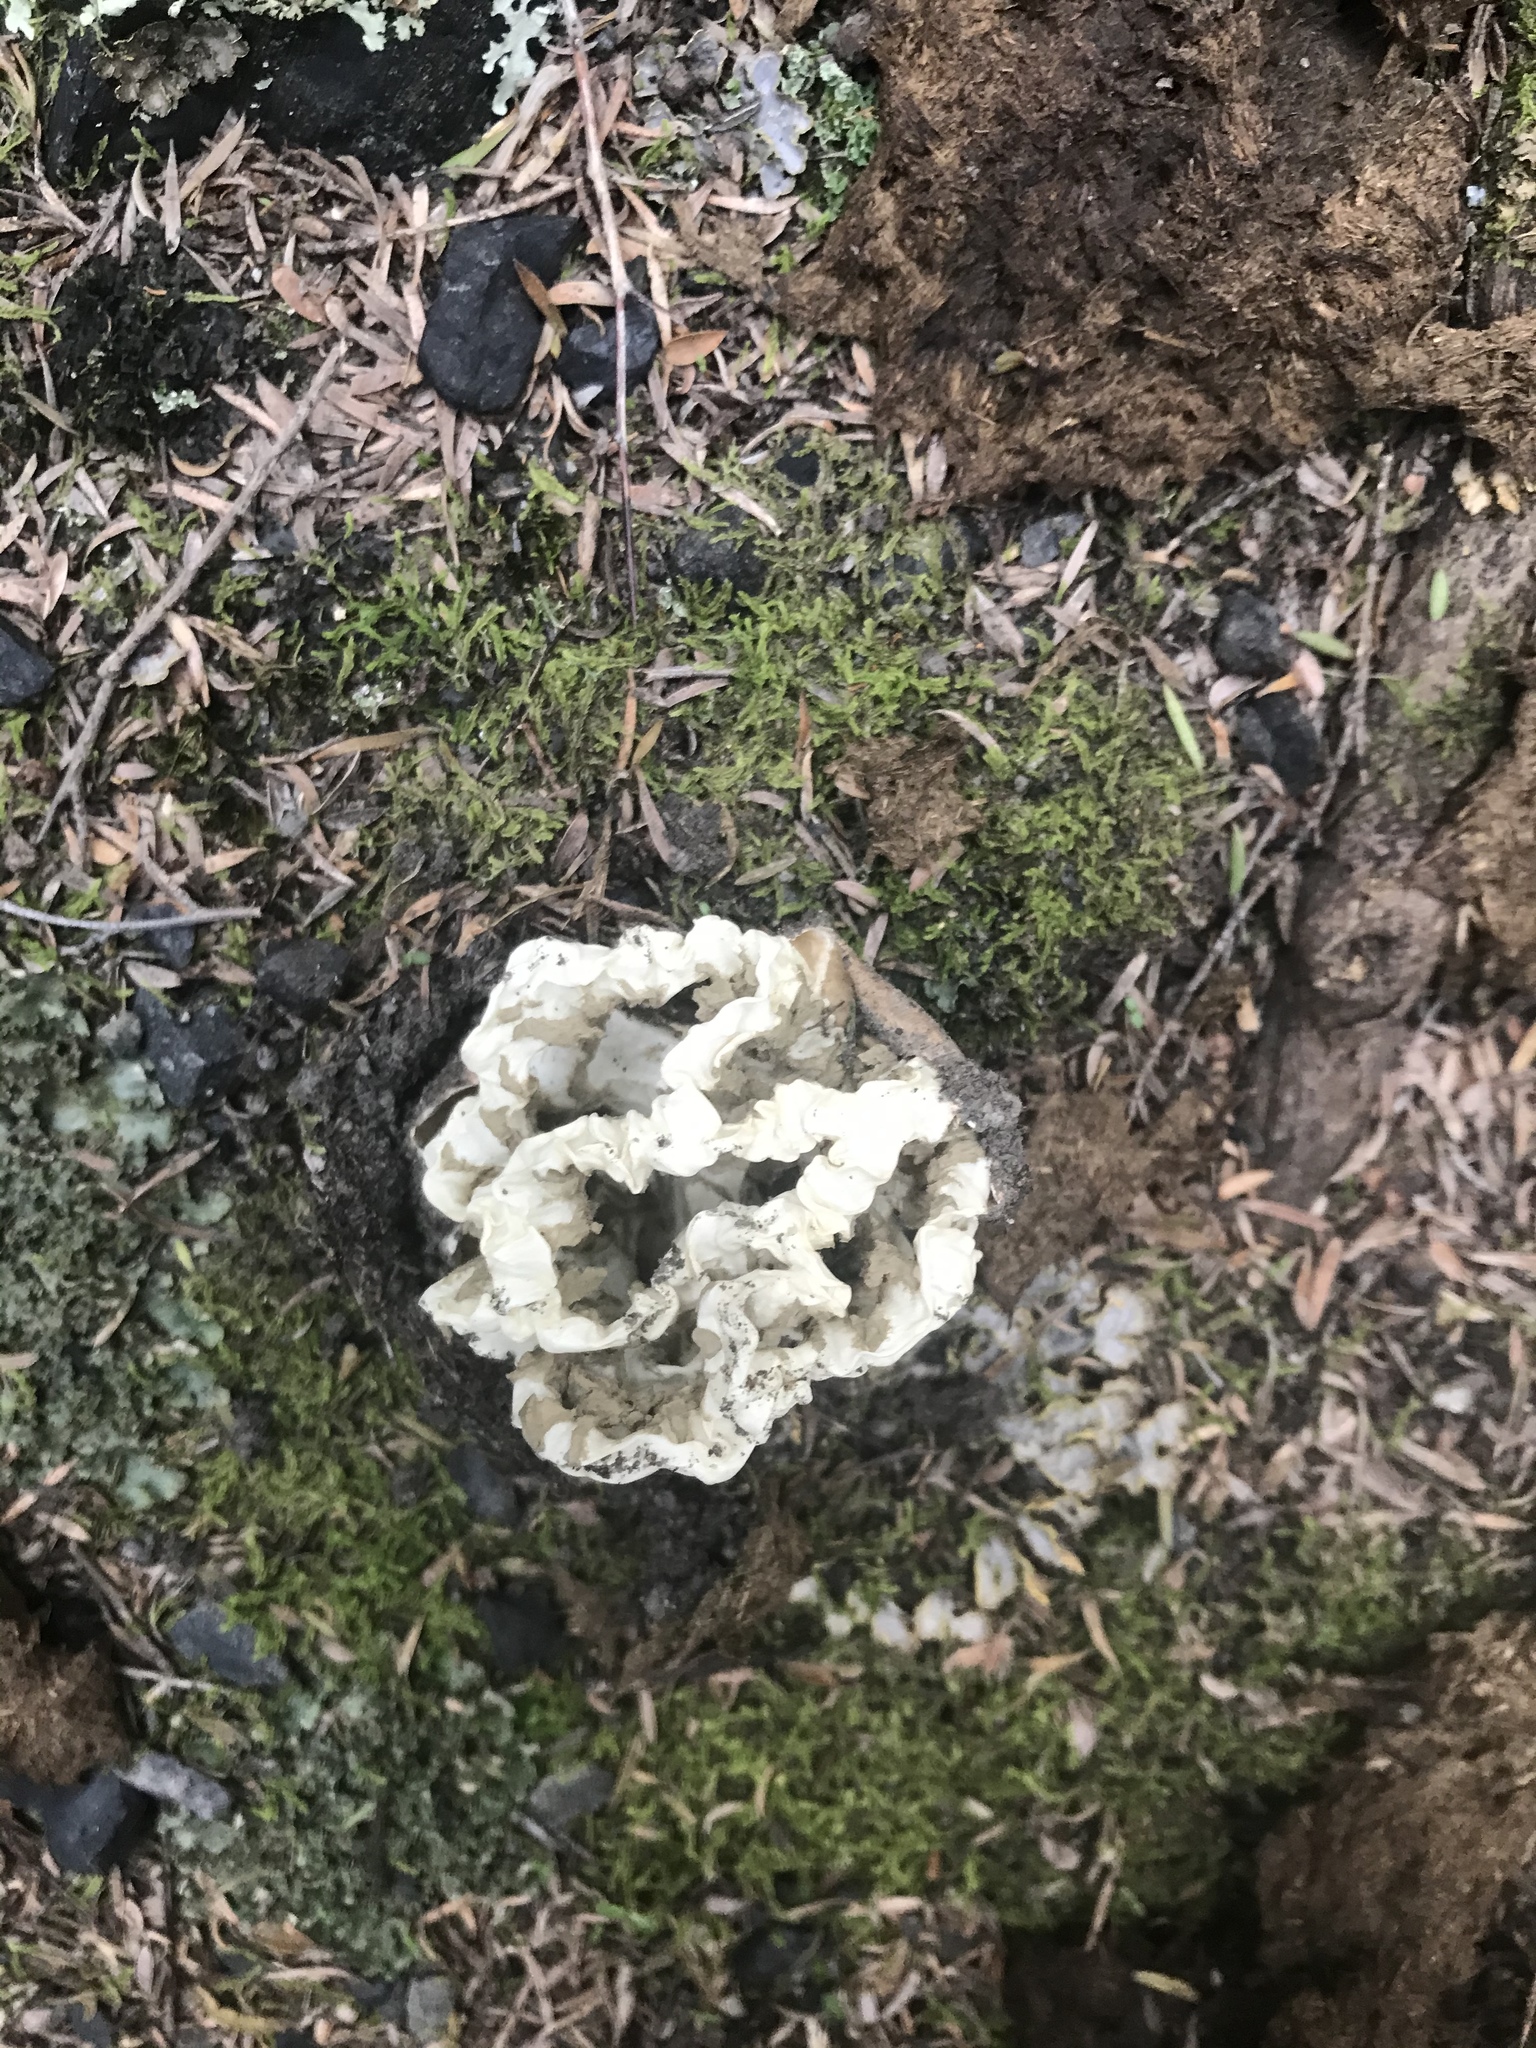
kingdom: Fungi
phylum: Basidiomycota
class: Agaricomycetes
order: Phallales
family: Phallaceae
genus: Ileodictyon
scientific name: Ileodictyon cibarium
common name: Basket fungus
